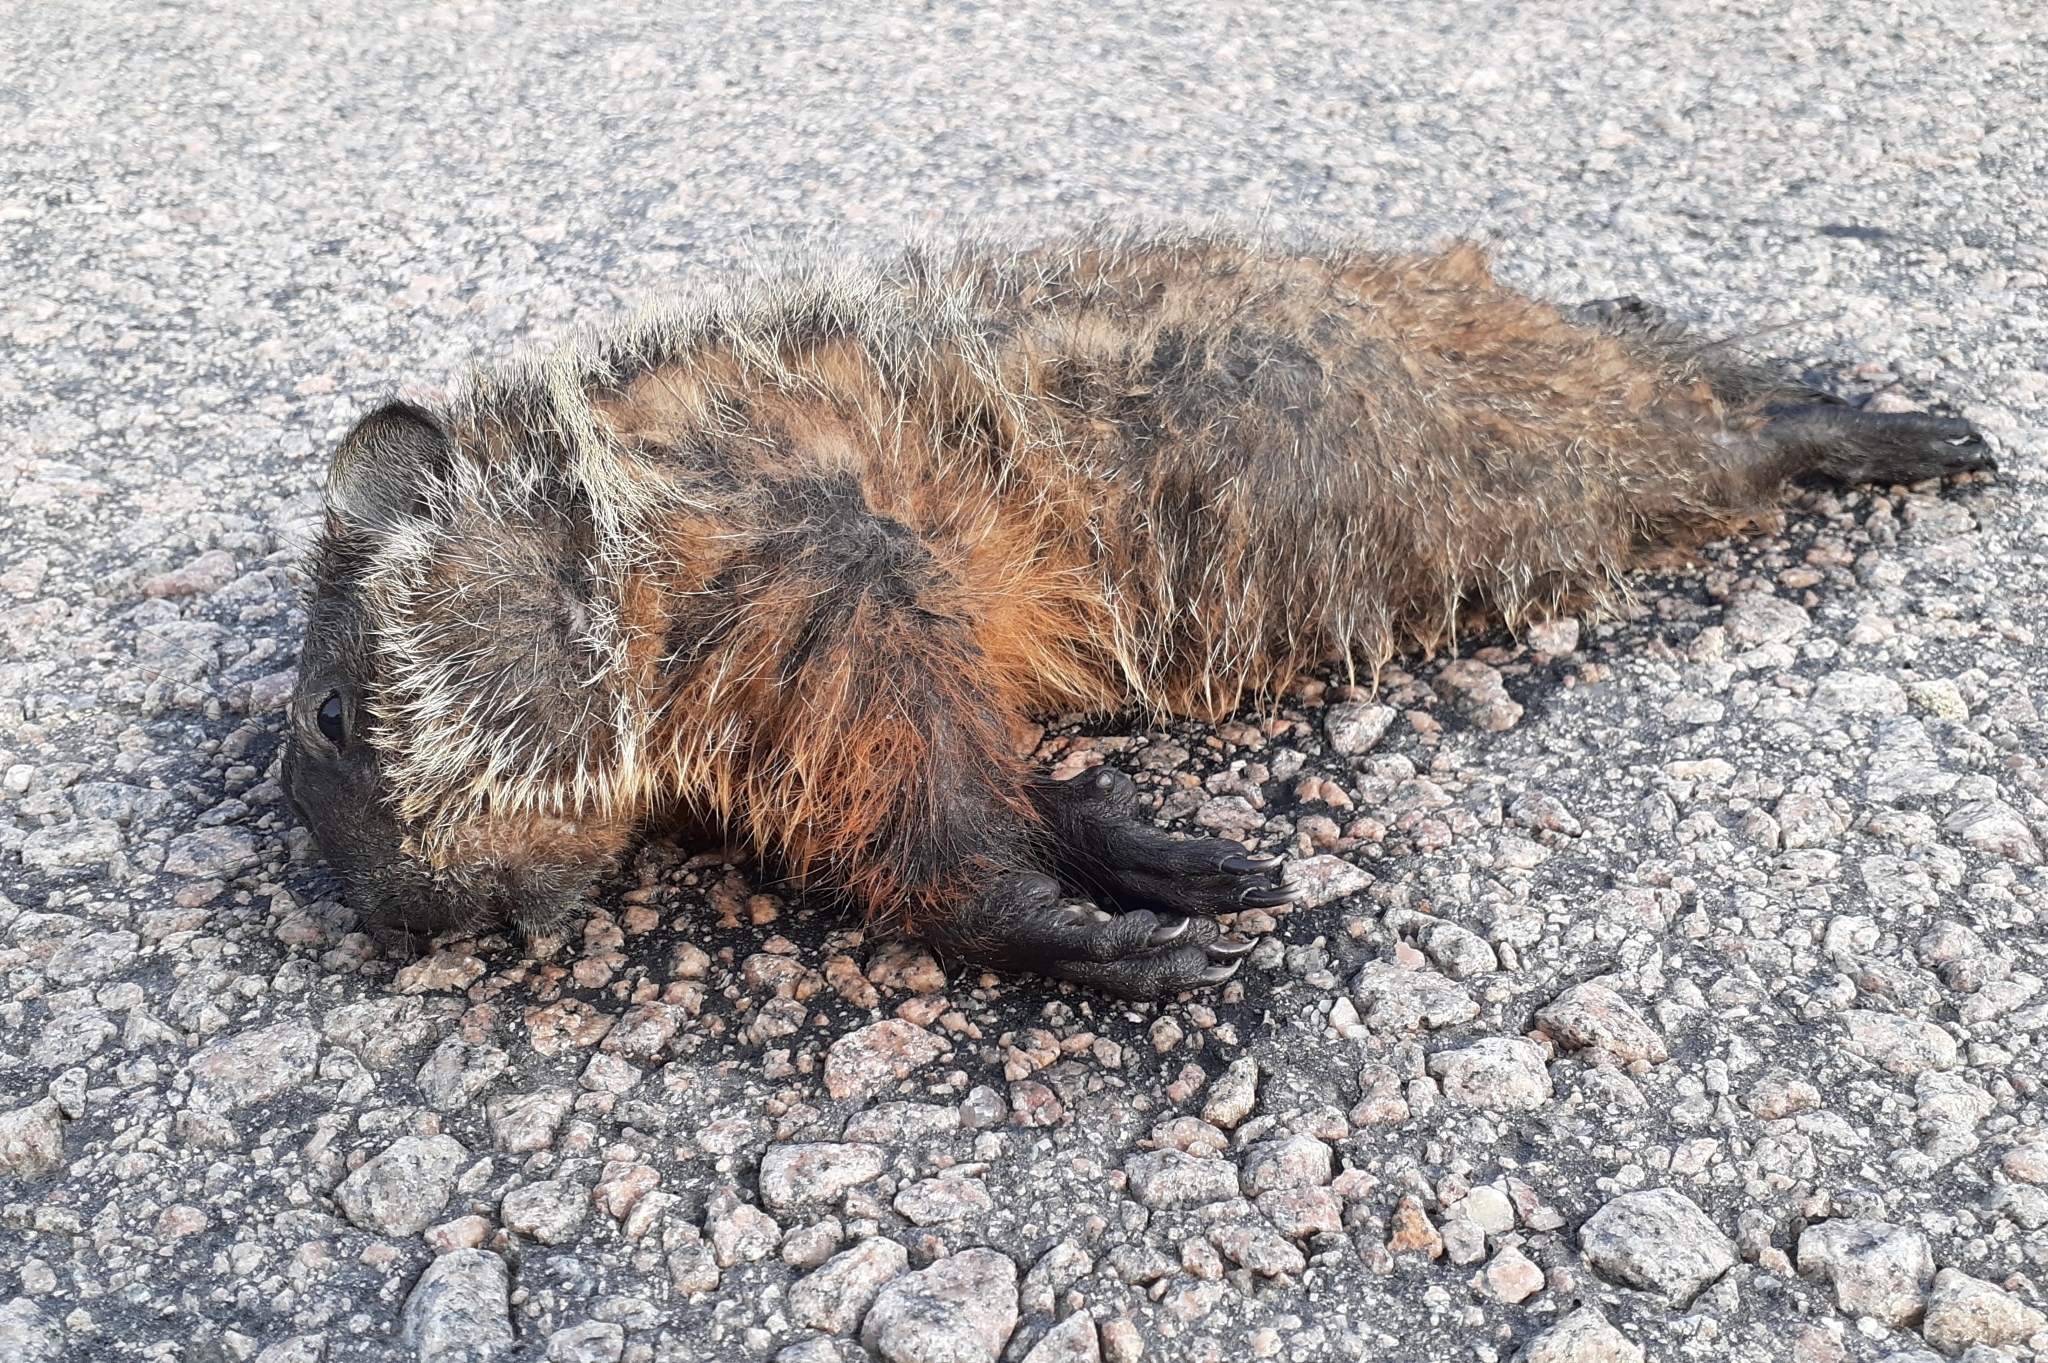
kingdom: Animalia
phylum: Chordata
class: Mammalia
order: Rodentia
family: Sciuridae
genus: Marmota
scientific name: Marmota monax
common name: Groundhog
